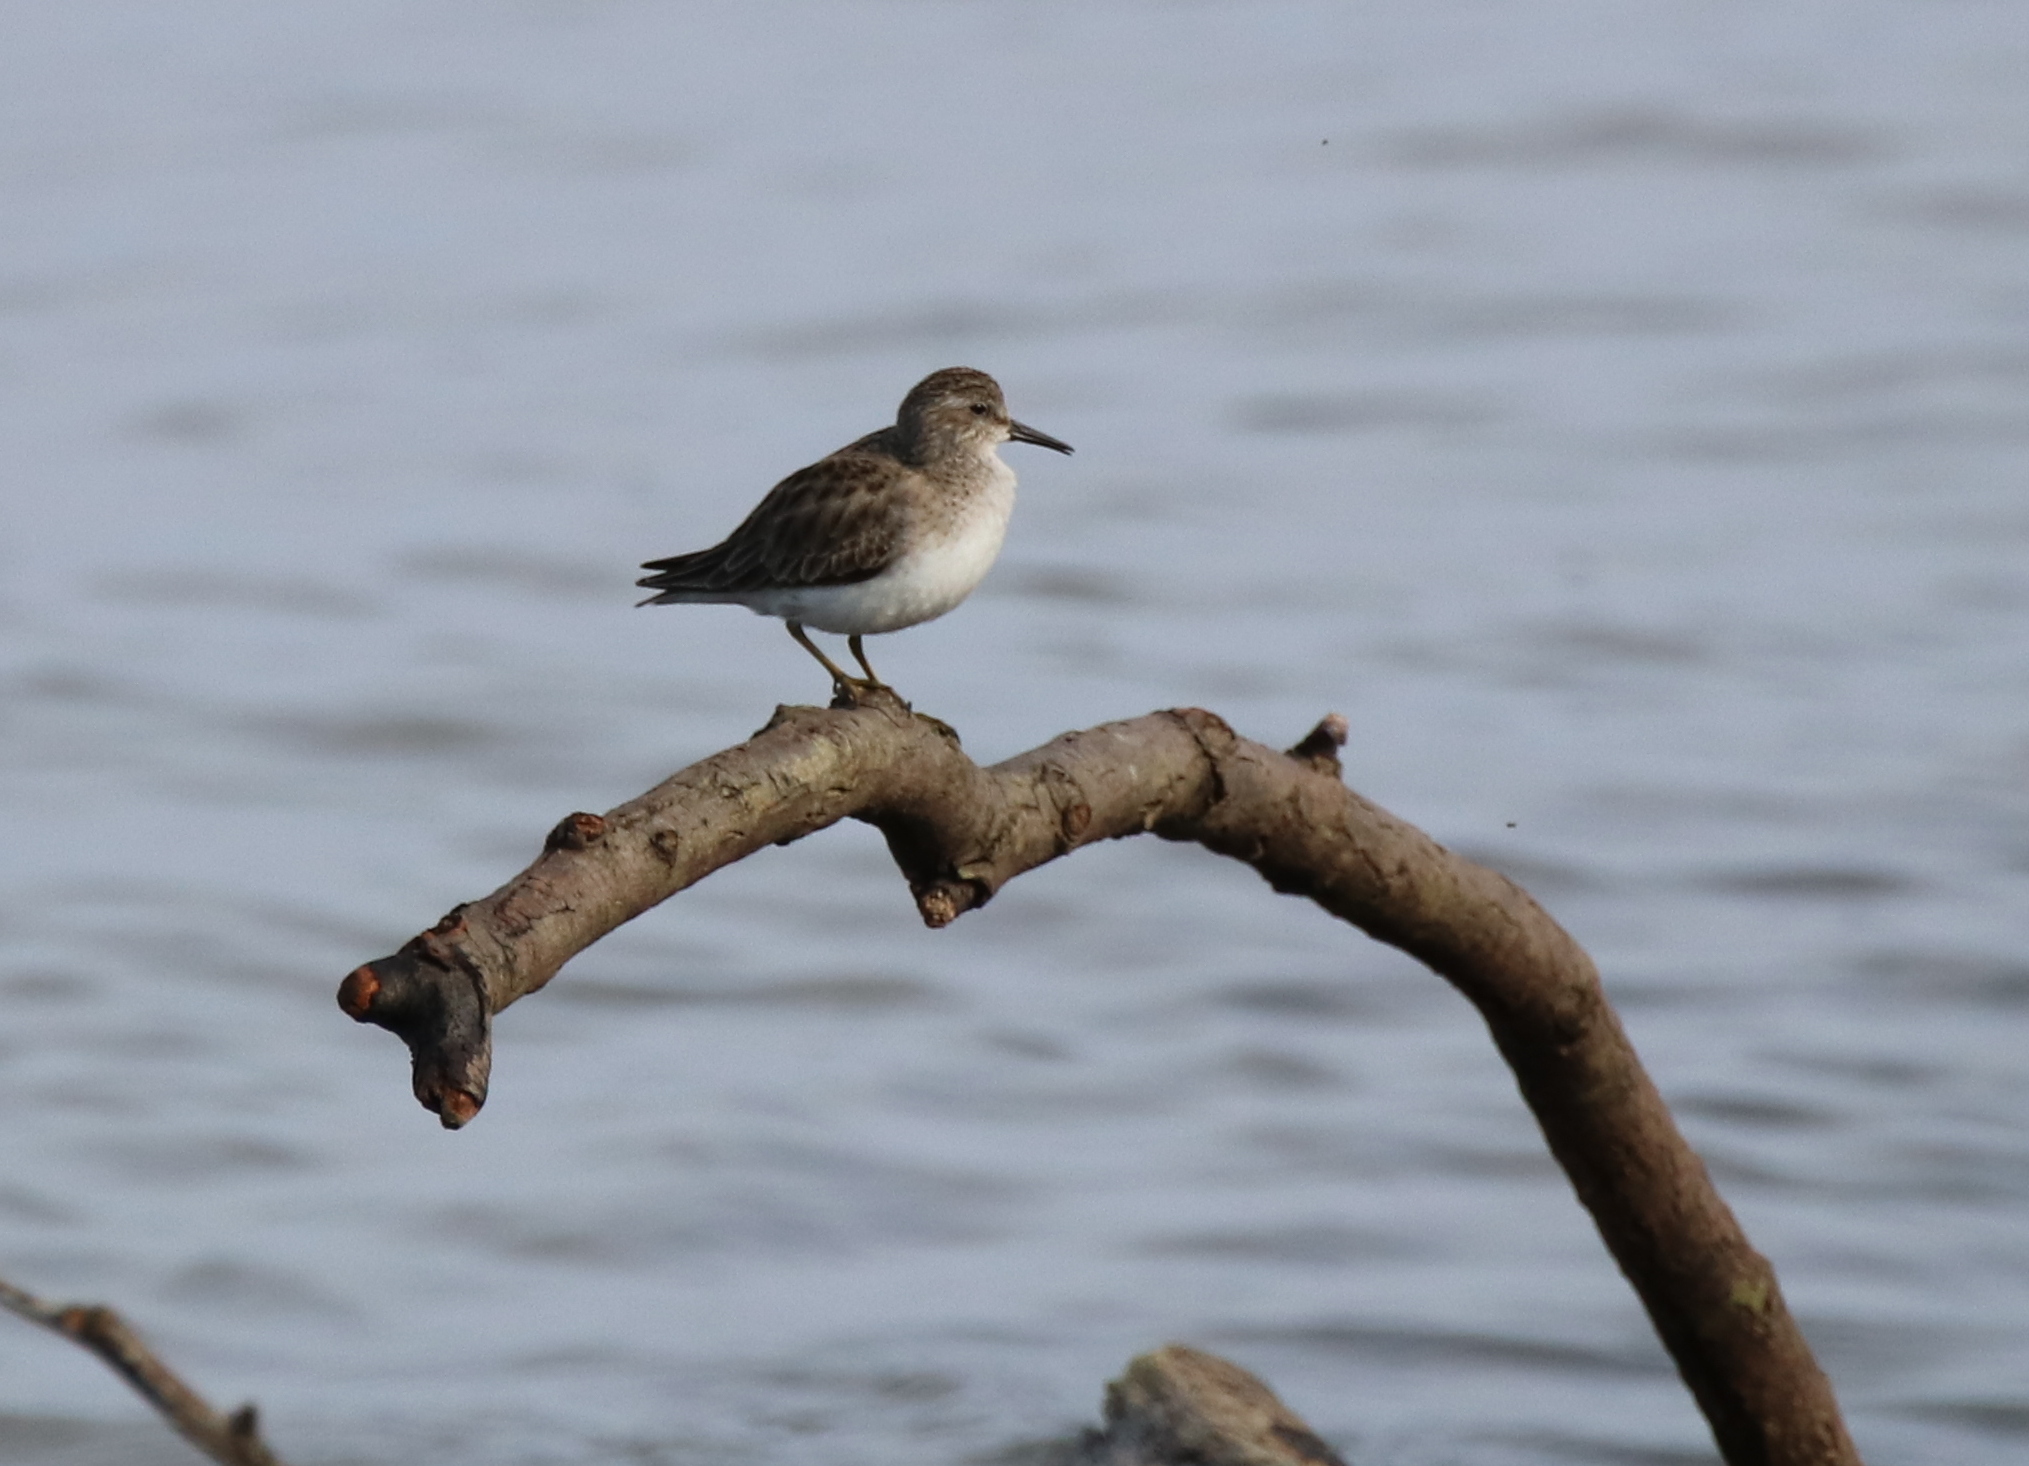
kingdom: Animalia
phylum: Chordata
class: Aves
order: Charadriiformes
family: Scolopacidae
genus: Calidris
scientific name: Calidris minutilla
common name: Least sandpiper
